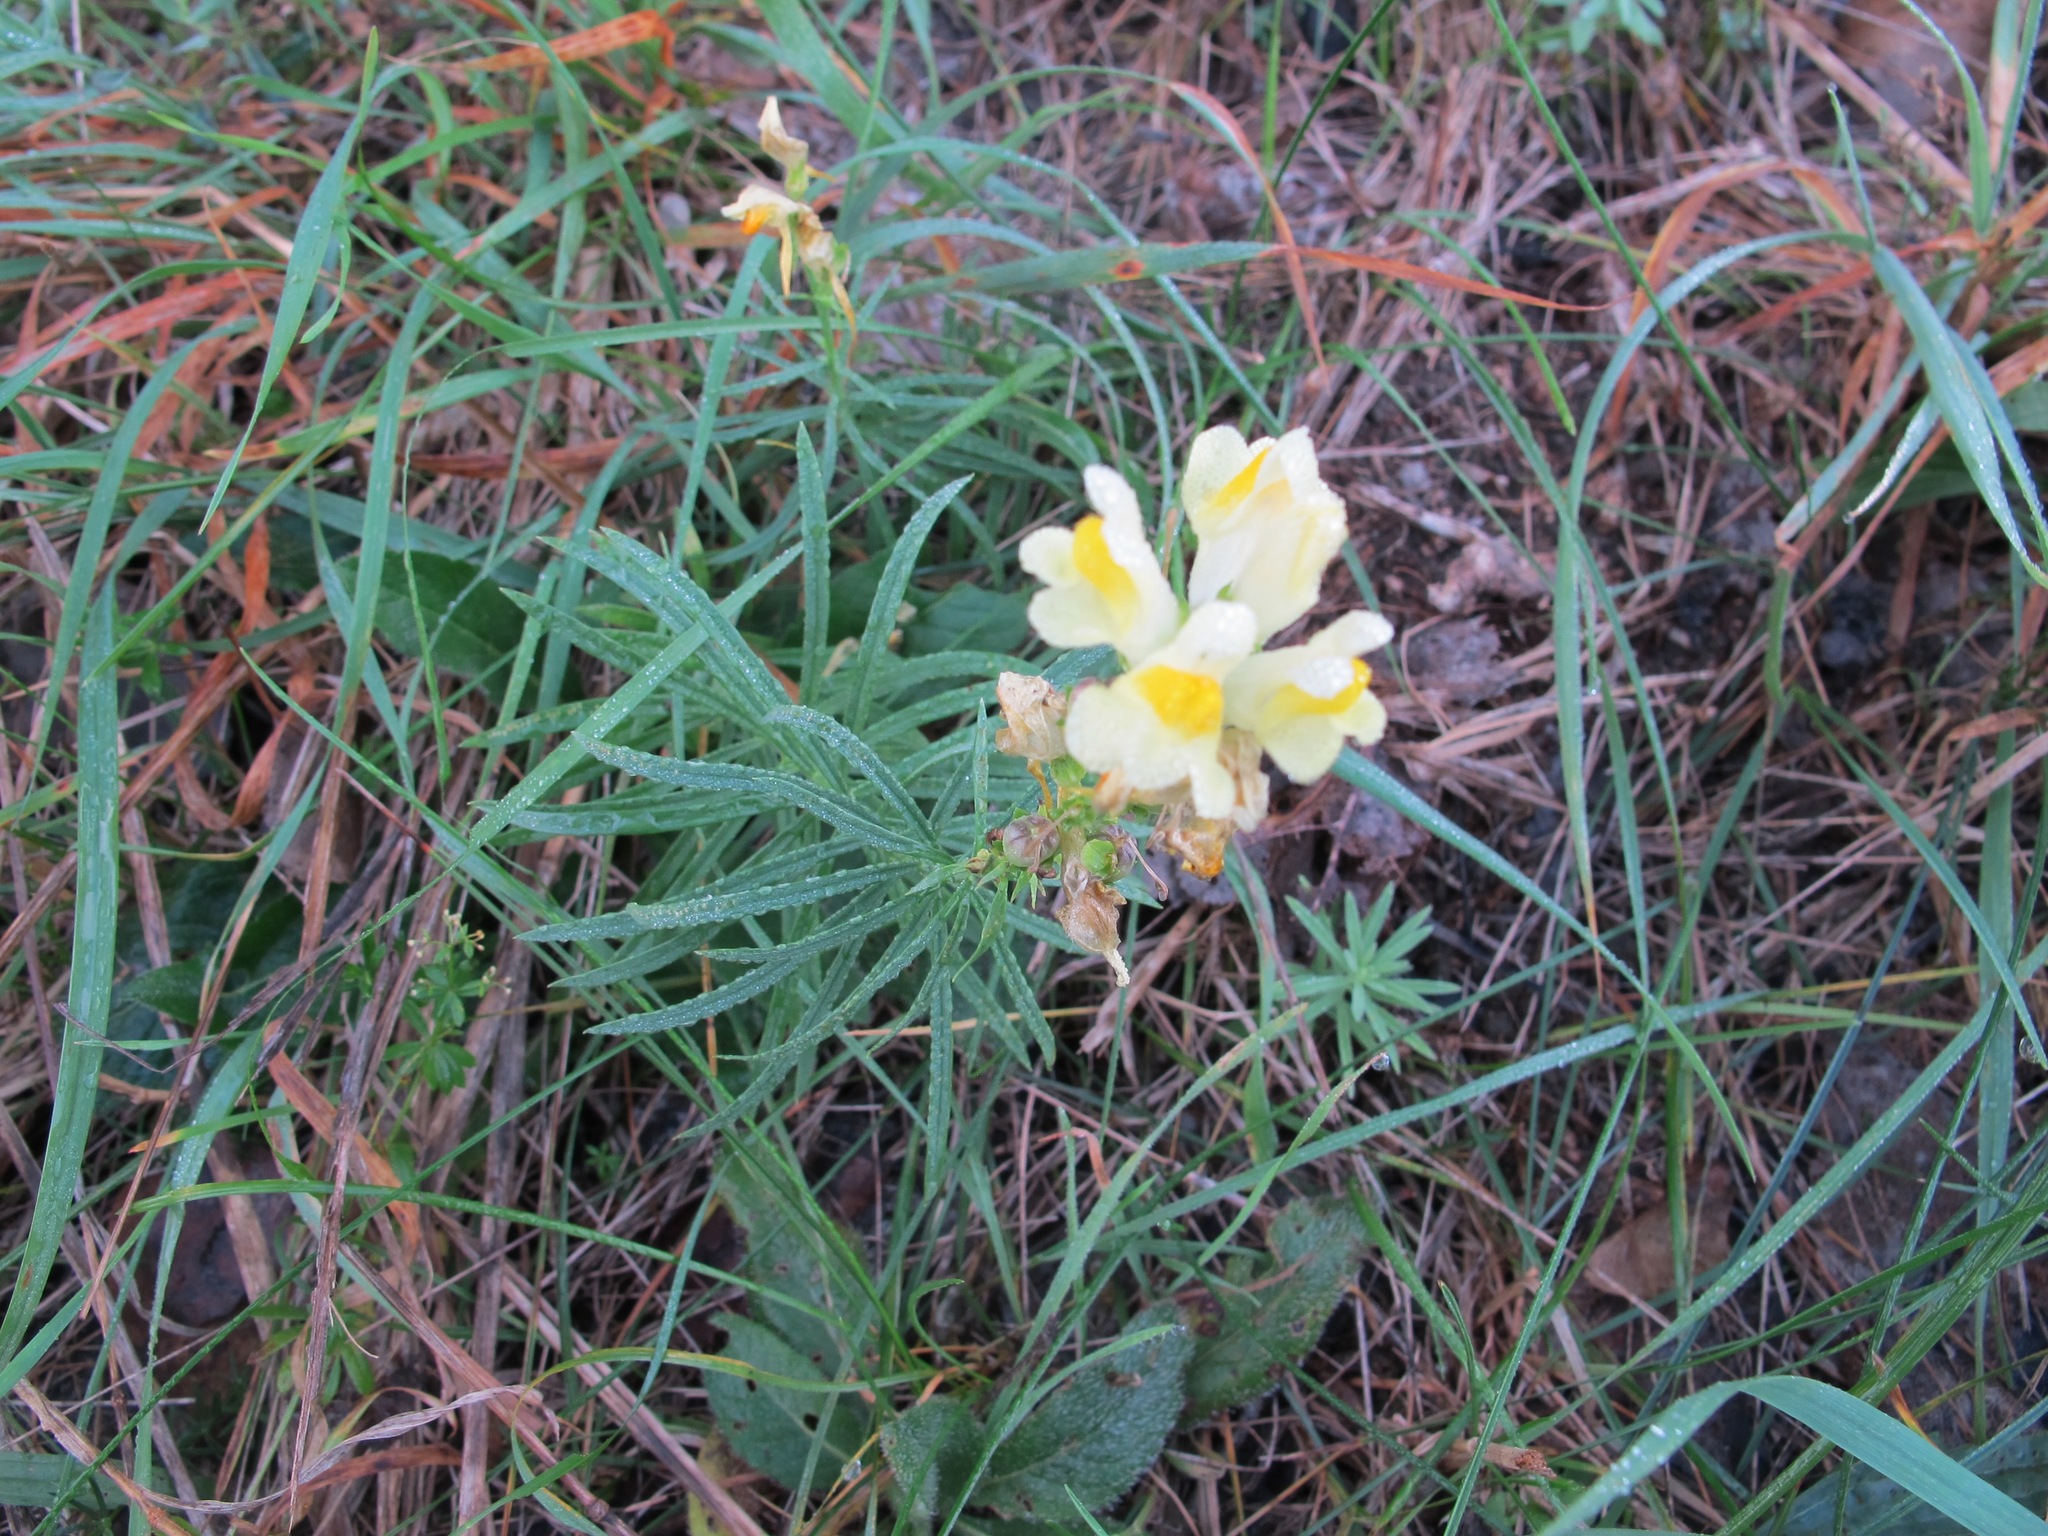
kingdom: Plantae
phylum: Tracheophyta
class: Magnoliopsida
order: Lamiales
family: Plantaginaceae
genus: Linaria
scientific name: Linaria vulgaris
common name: Butter and eggs
